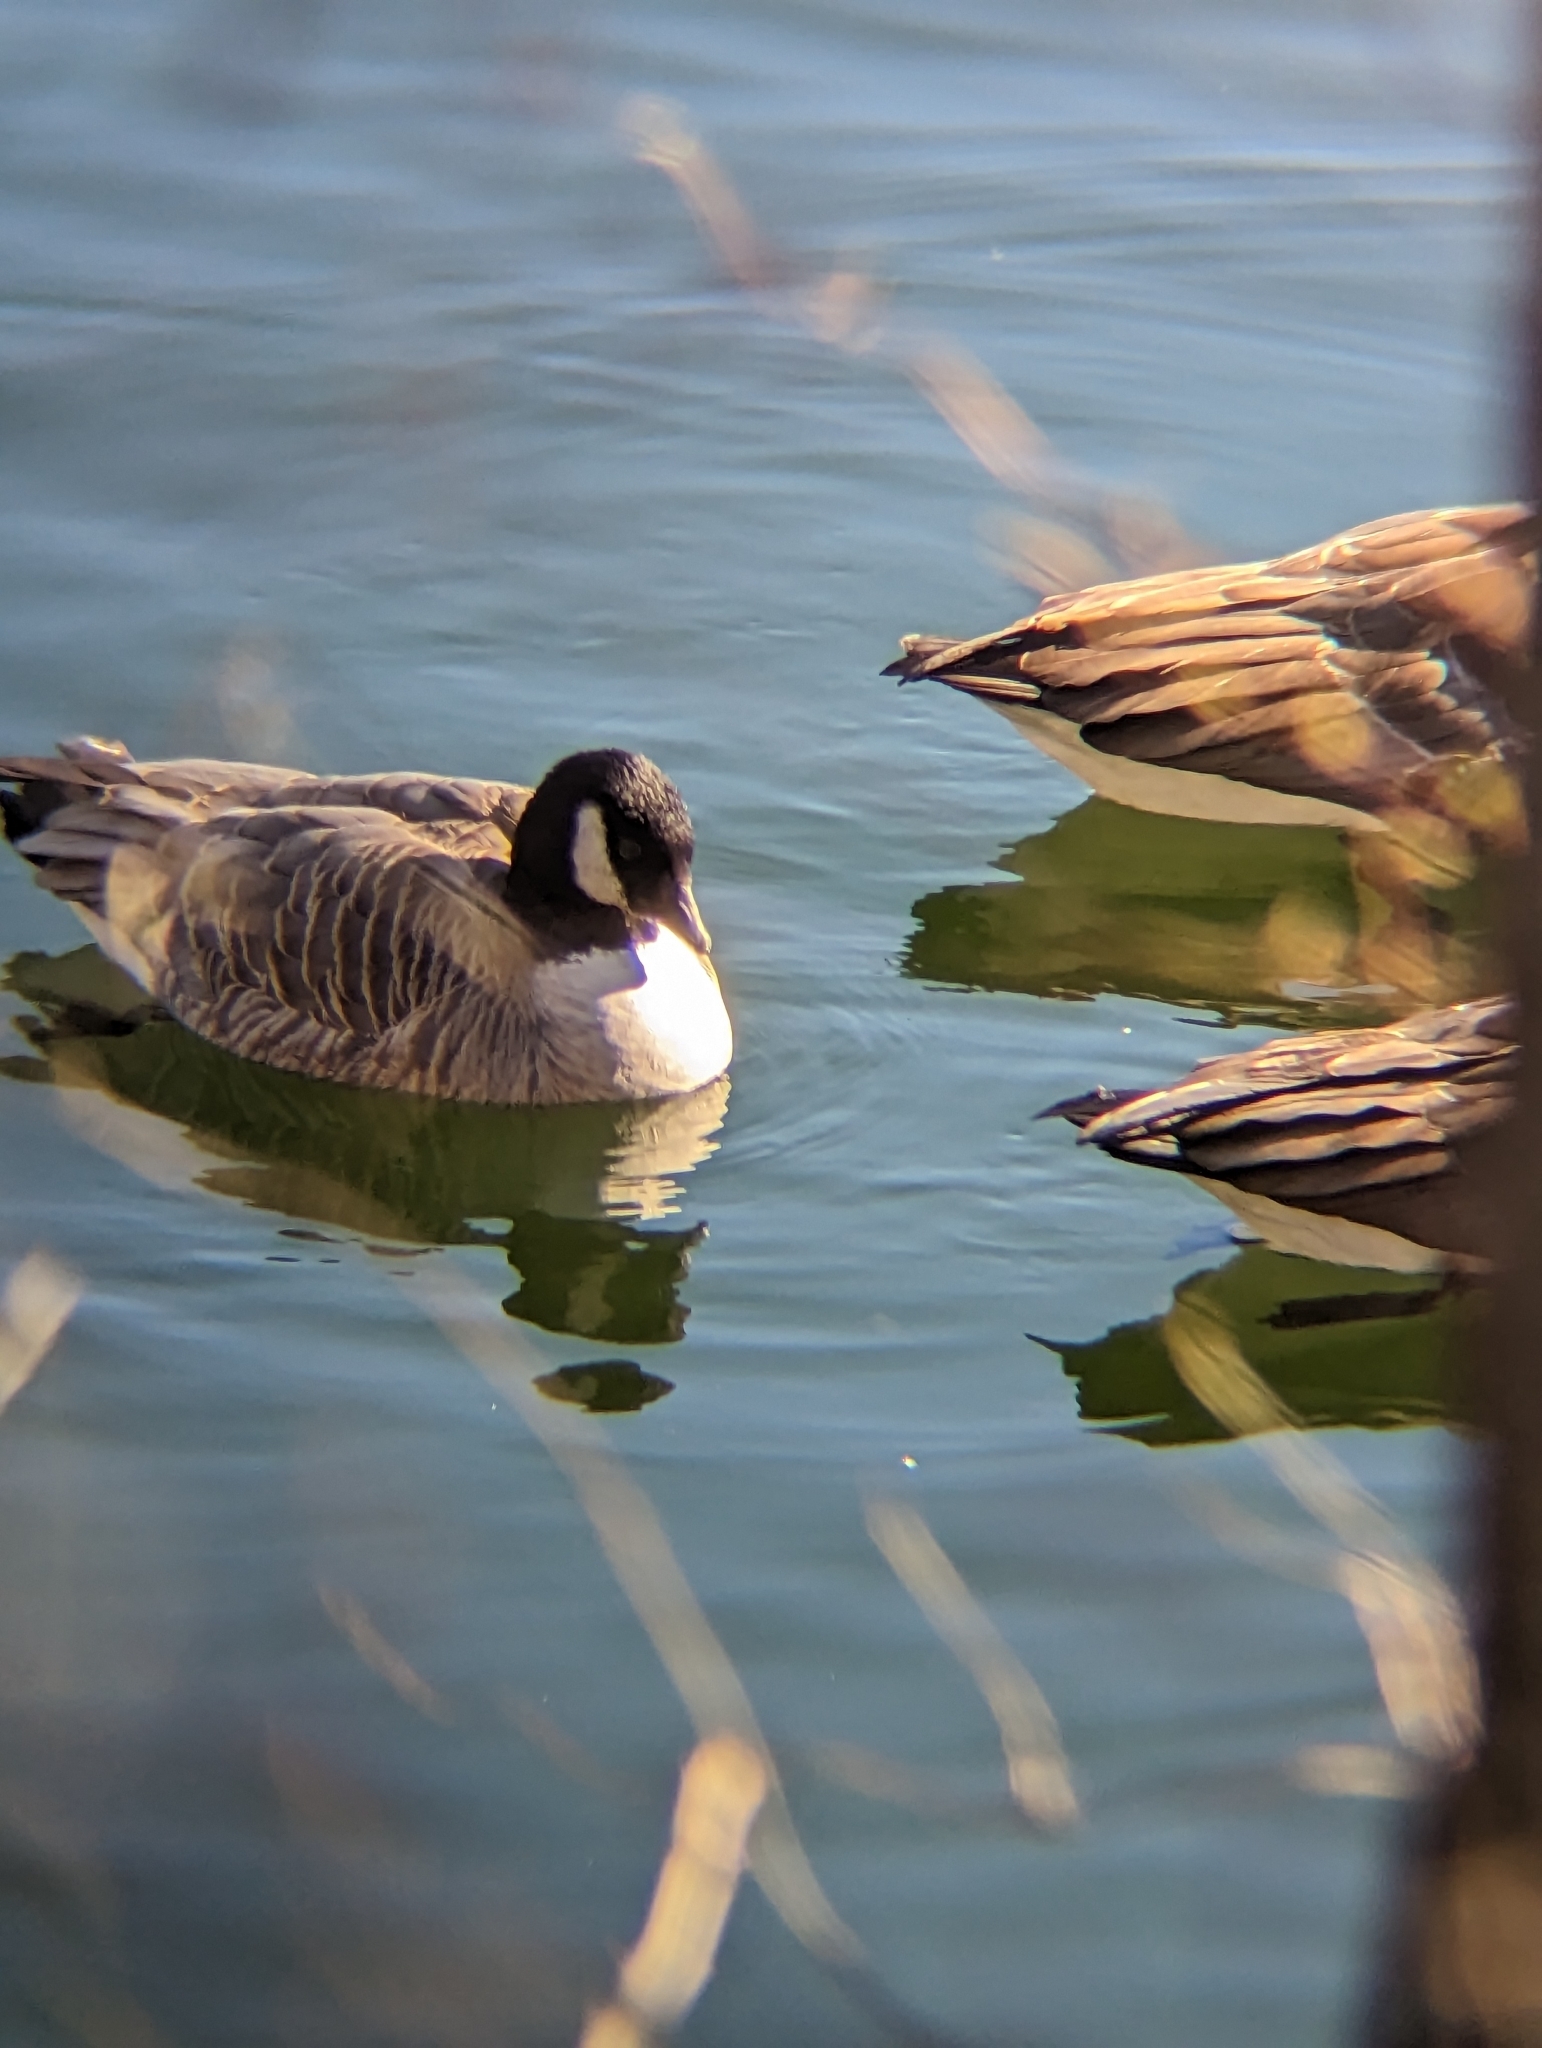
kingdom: Animalia
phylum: Chordata
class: Aves
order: Anseriformes
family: Anatidae
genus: Branta
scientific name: Branta hutchinsii
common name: Cackling goose
